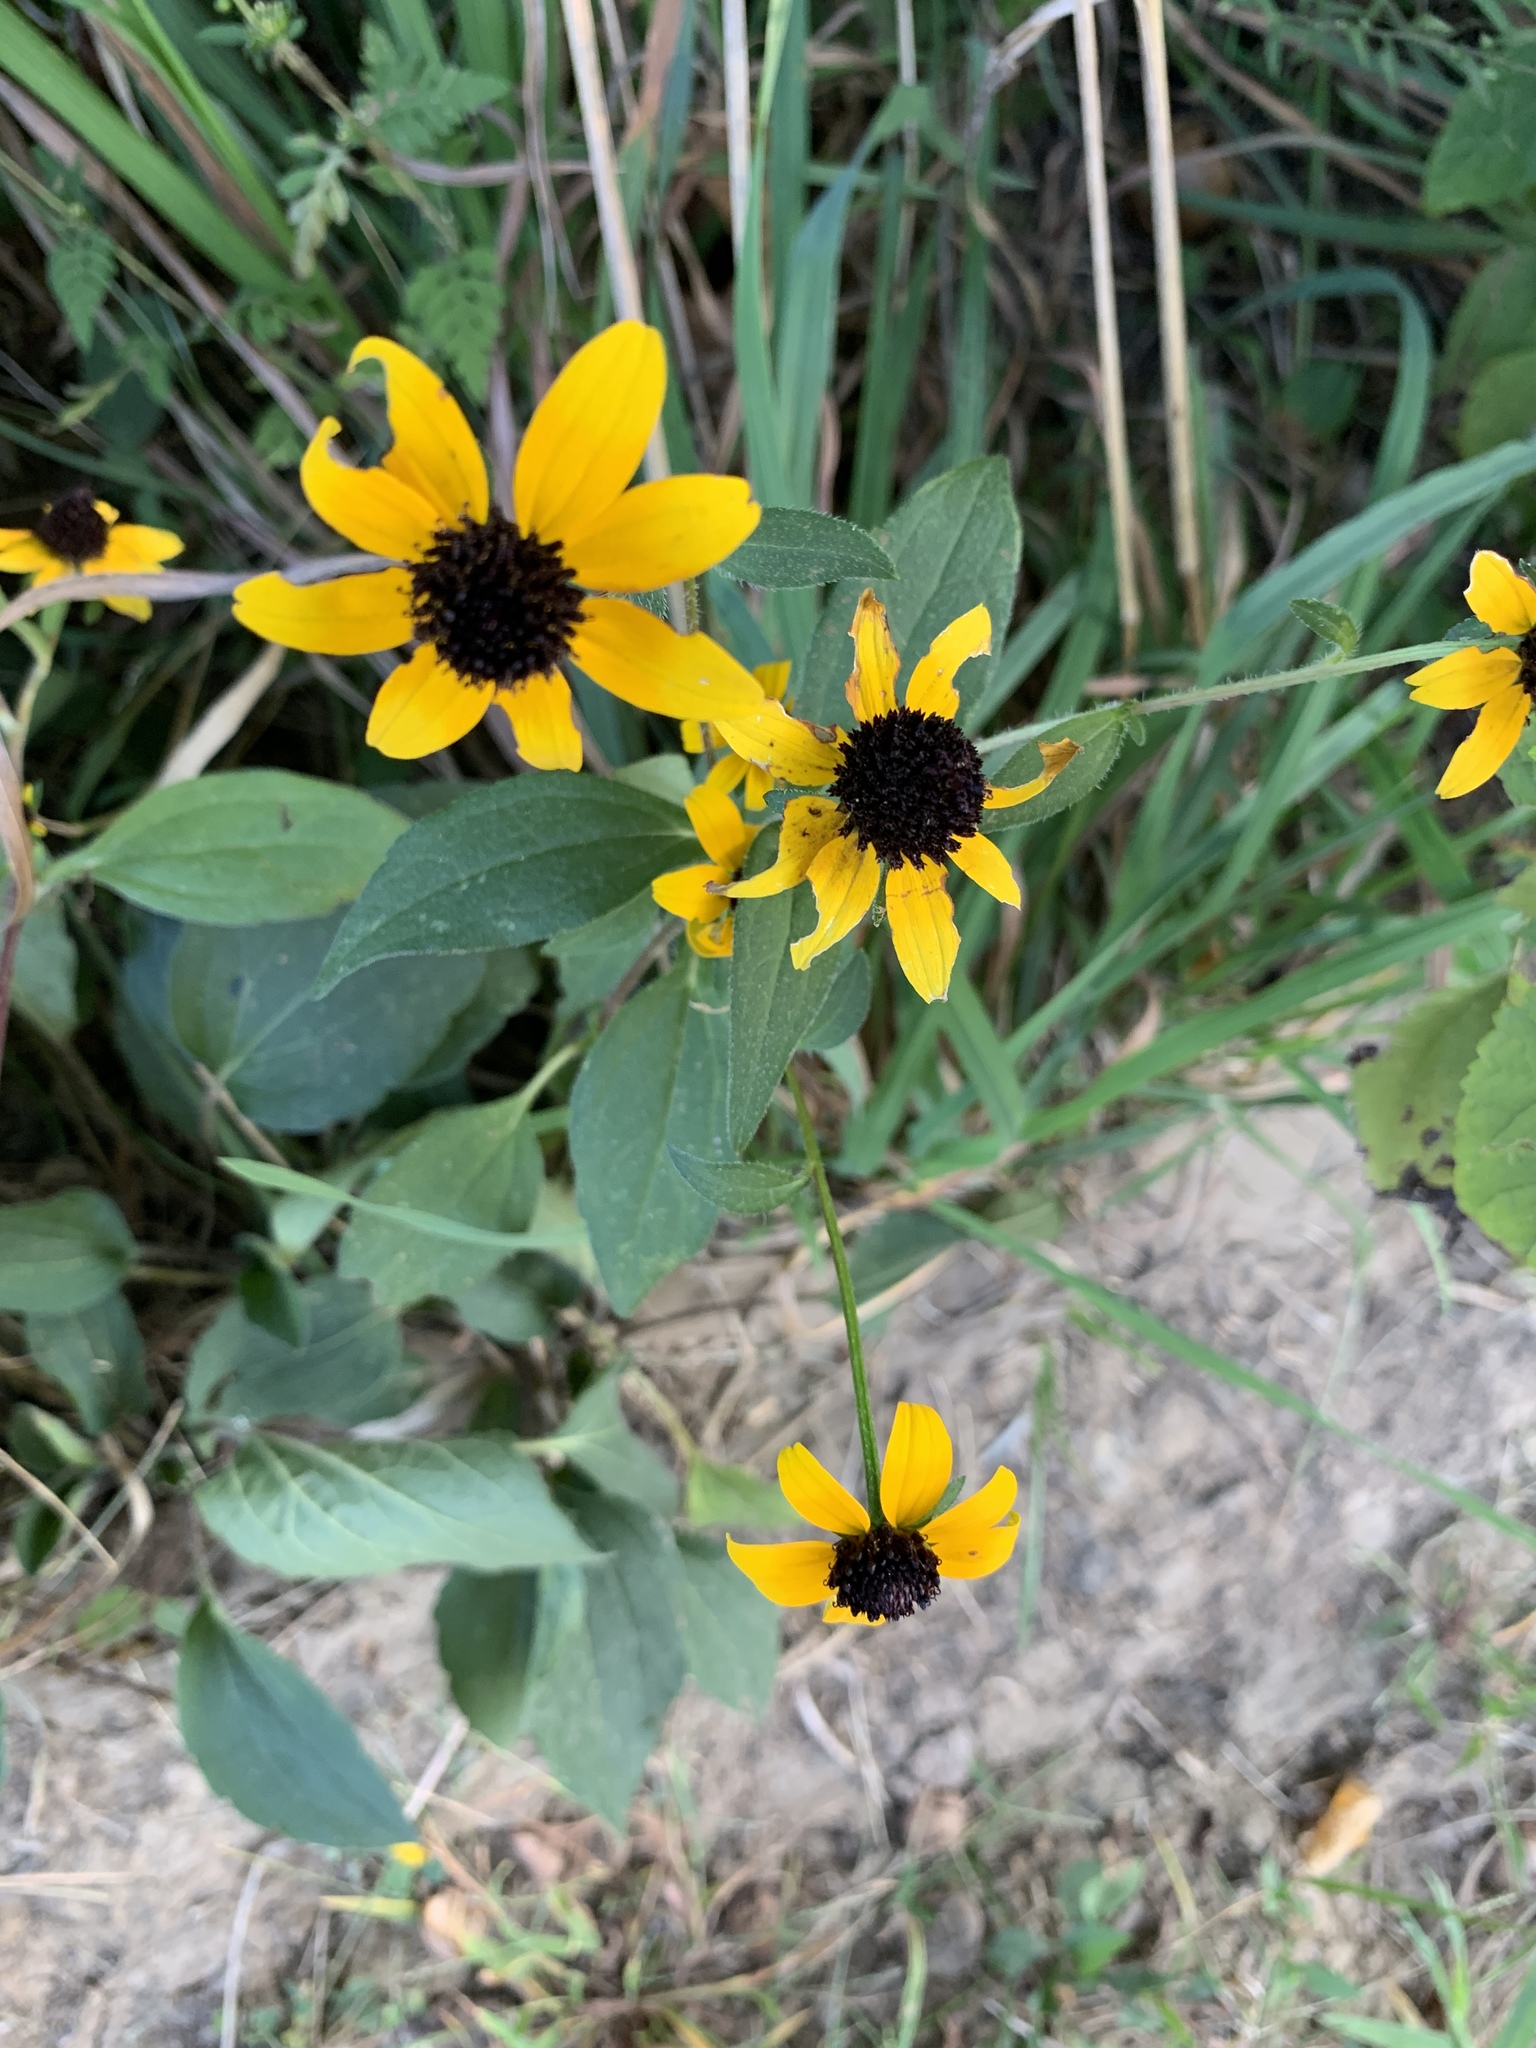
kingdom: Plantae
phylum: Tracheophyta
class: Magnoliopsida
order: Asterales
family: Asteraceae
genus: Rudbeckia
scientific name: Rudbeckia triloba
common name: Thin-leaved coneflower
